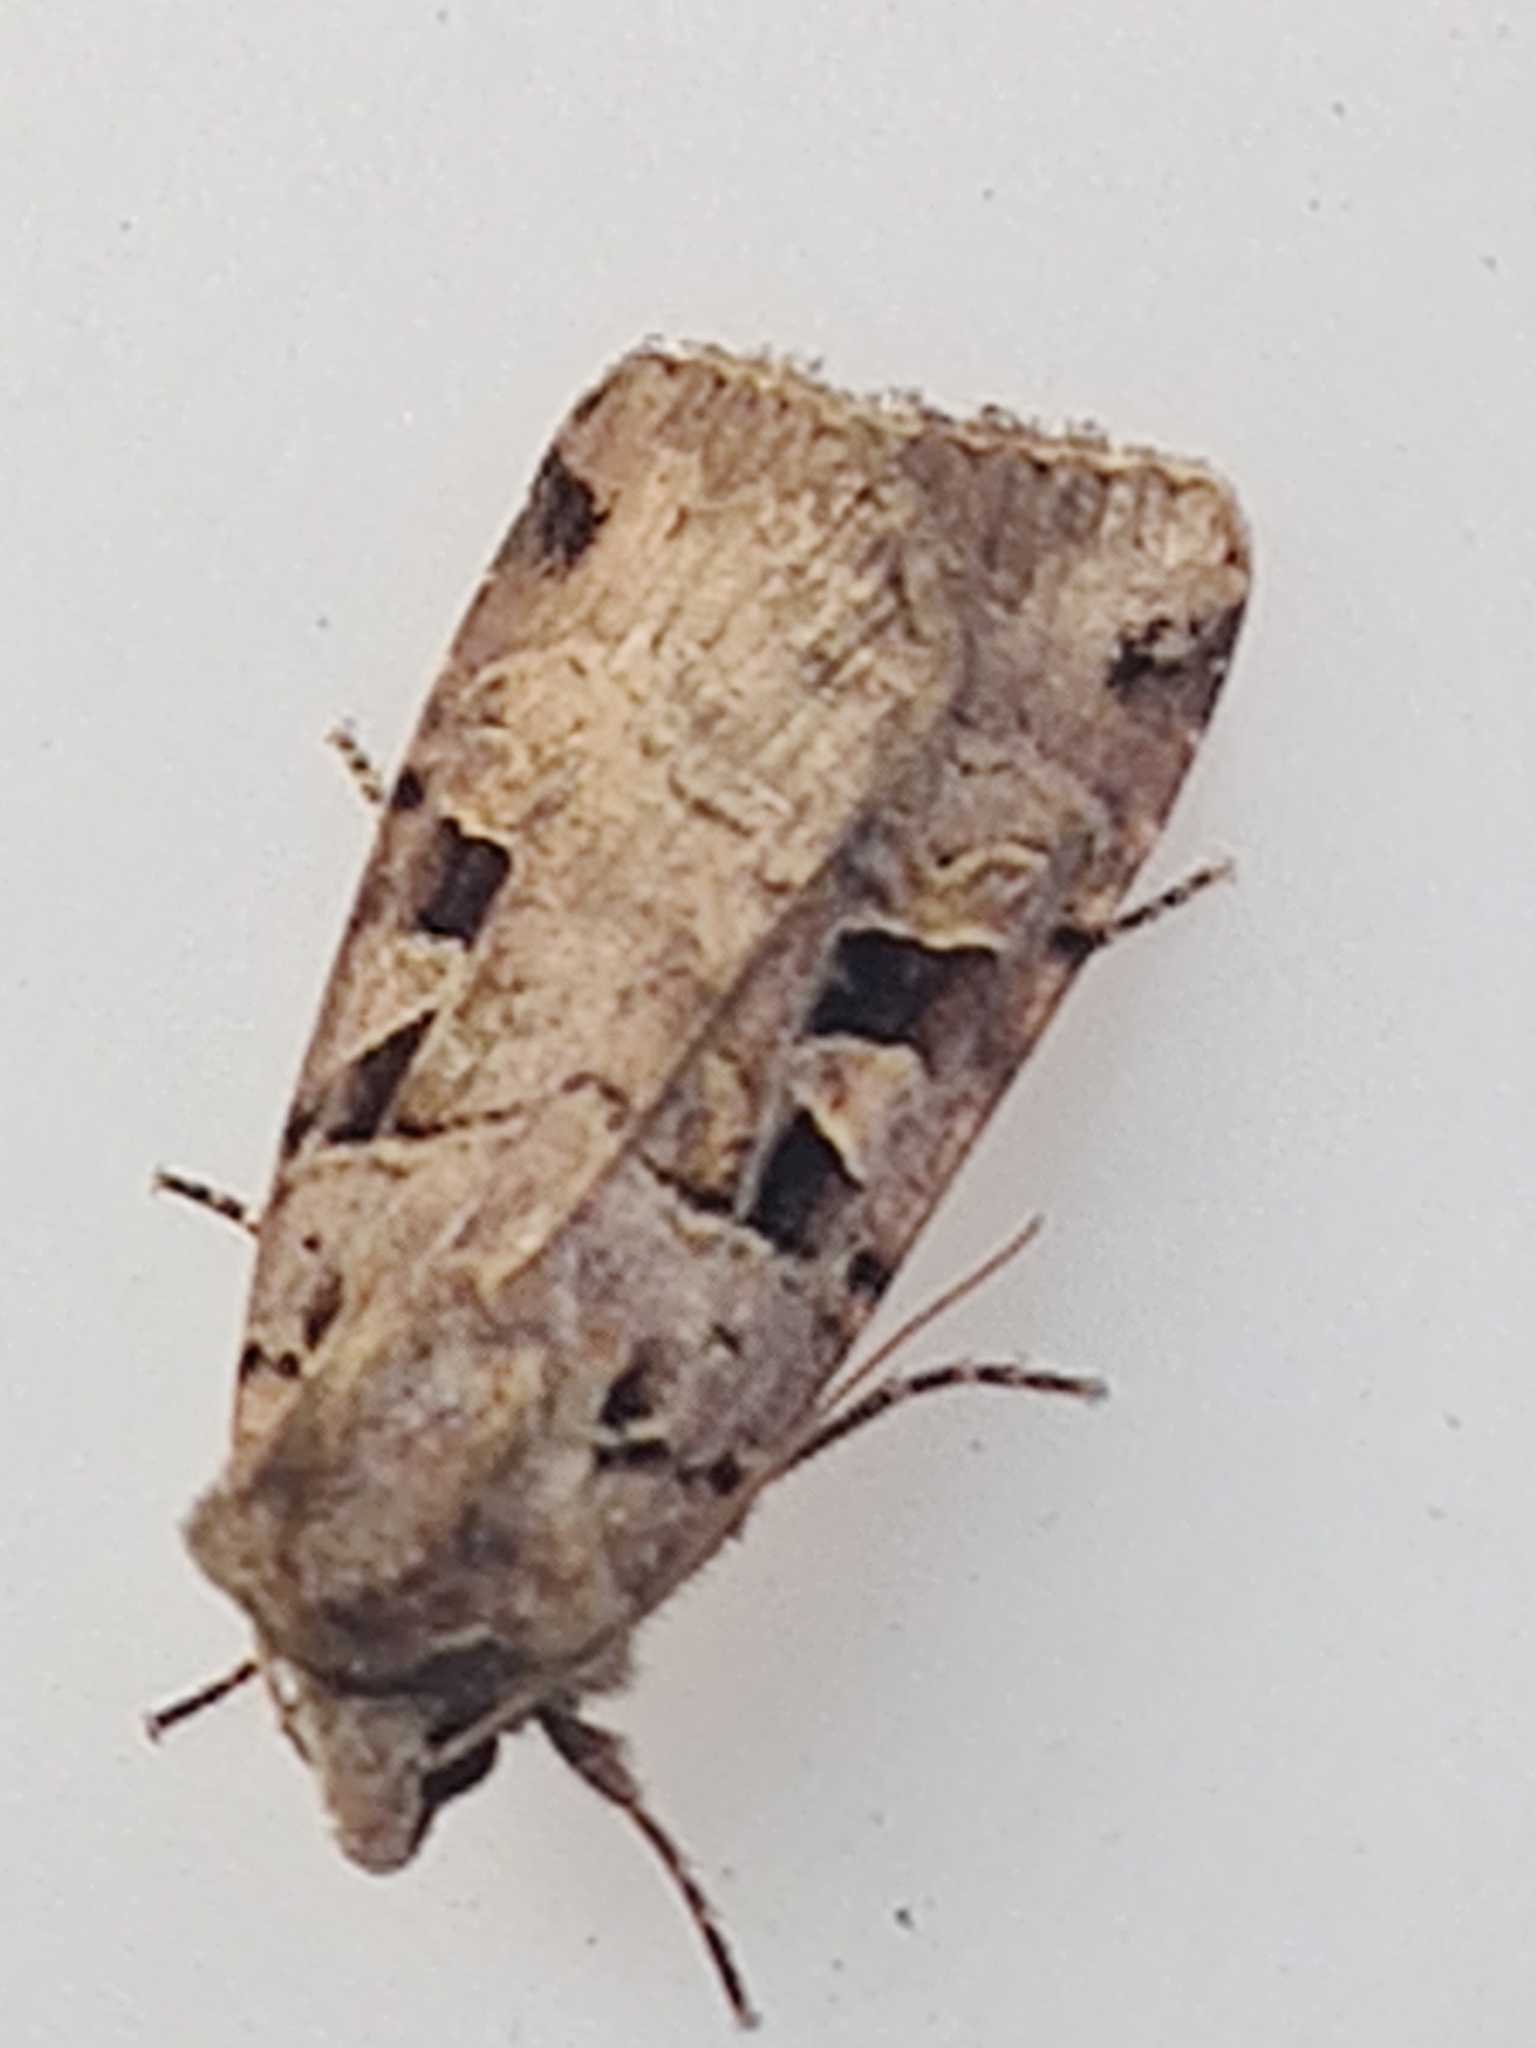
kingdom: Animalia
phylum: Arthropoda
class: Insecta
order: Lepidoptera
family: Noctuidae
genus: Xestia
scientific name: Xestia triangulum
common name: Double square-spot
